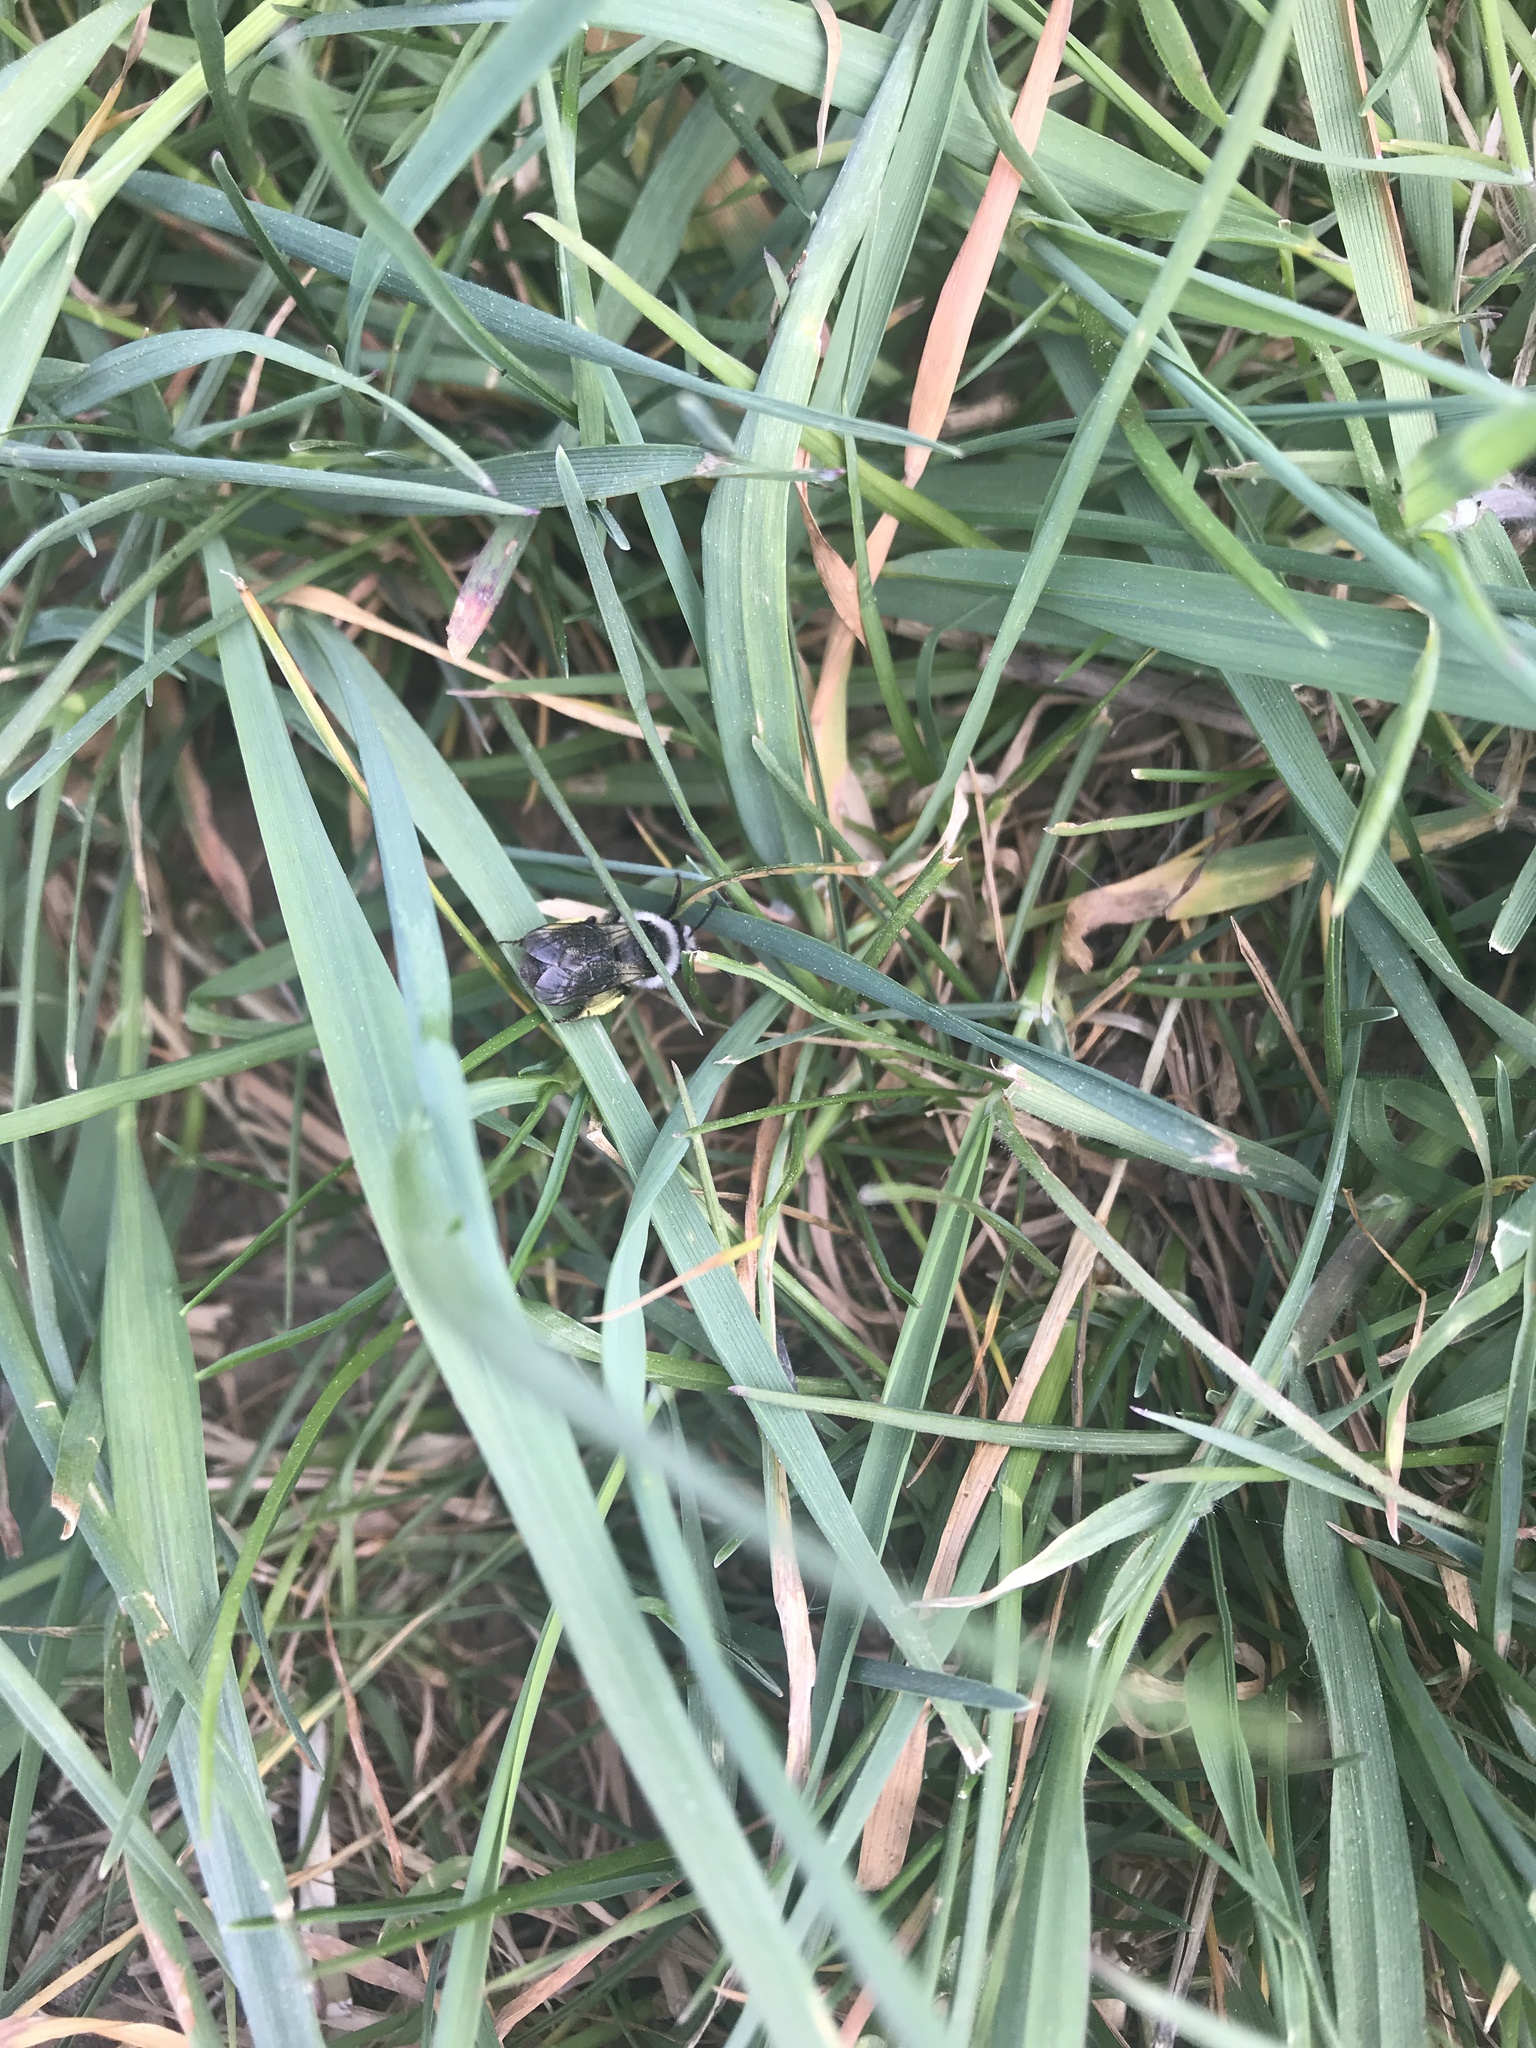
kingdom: Animalia
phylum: Arthropoda
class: Insecta
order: Hymenoptera
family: Andrenidae
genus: Andrena
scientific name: Andrena cineraria
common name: Ashy mining bee
